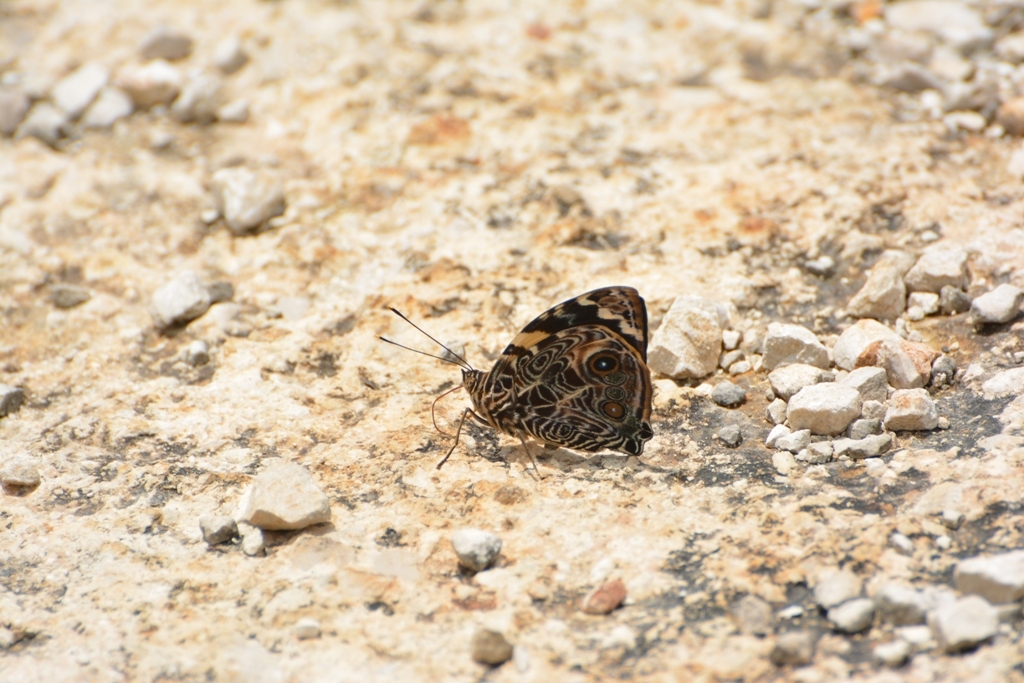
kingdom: Animalia
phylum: Arthropoda
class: Insecta
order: Lepidoptera
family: Nymphalidae
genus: Smyrna
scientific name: Smyrna blomfildia
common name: Blomfild's beauty
